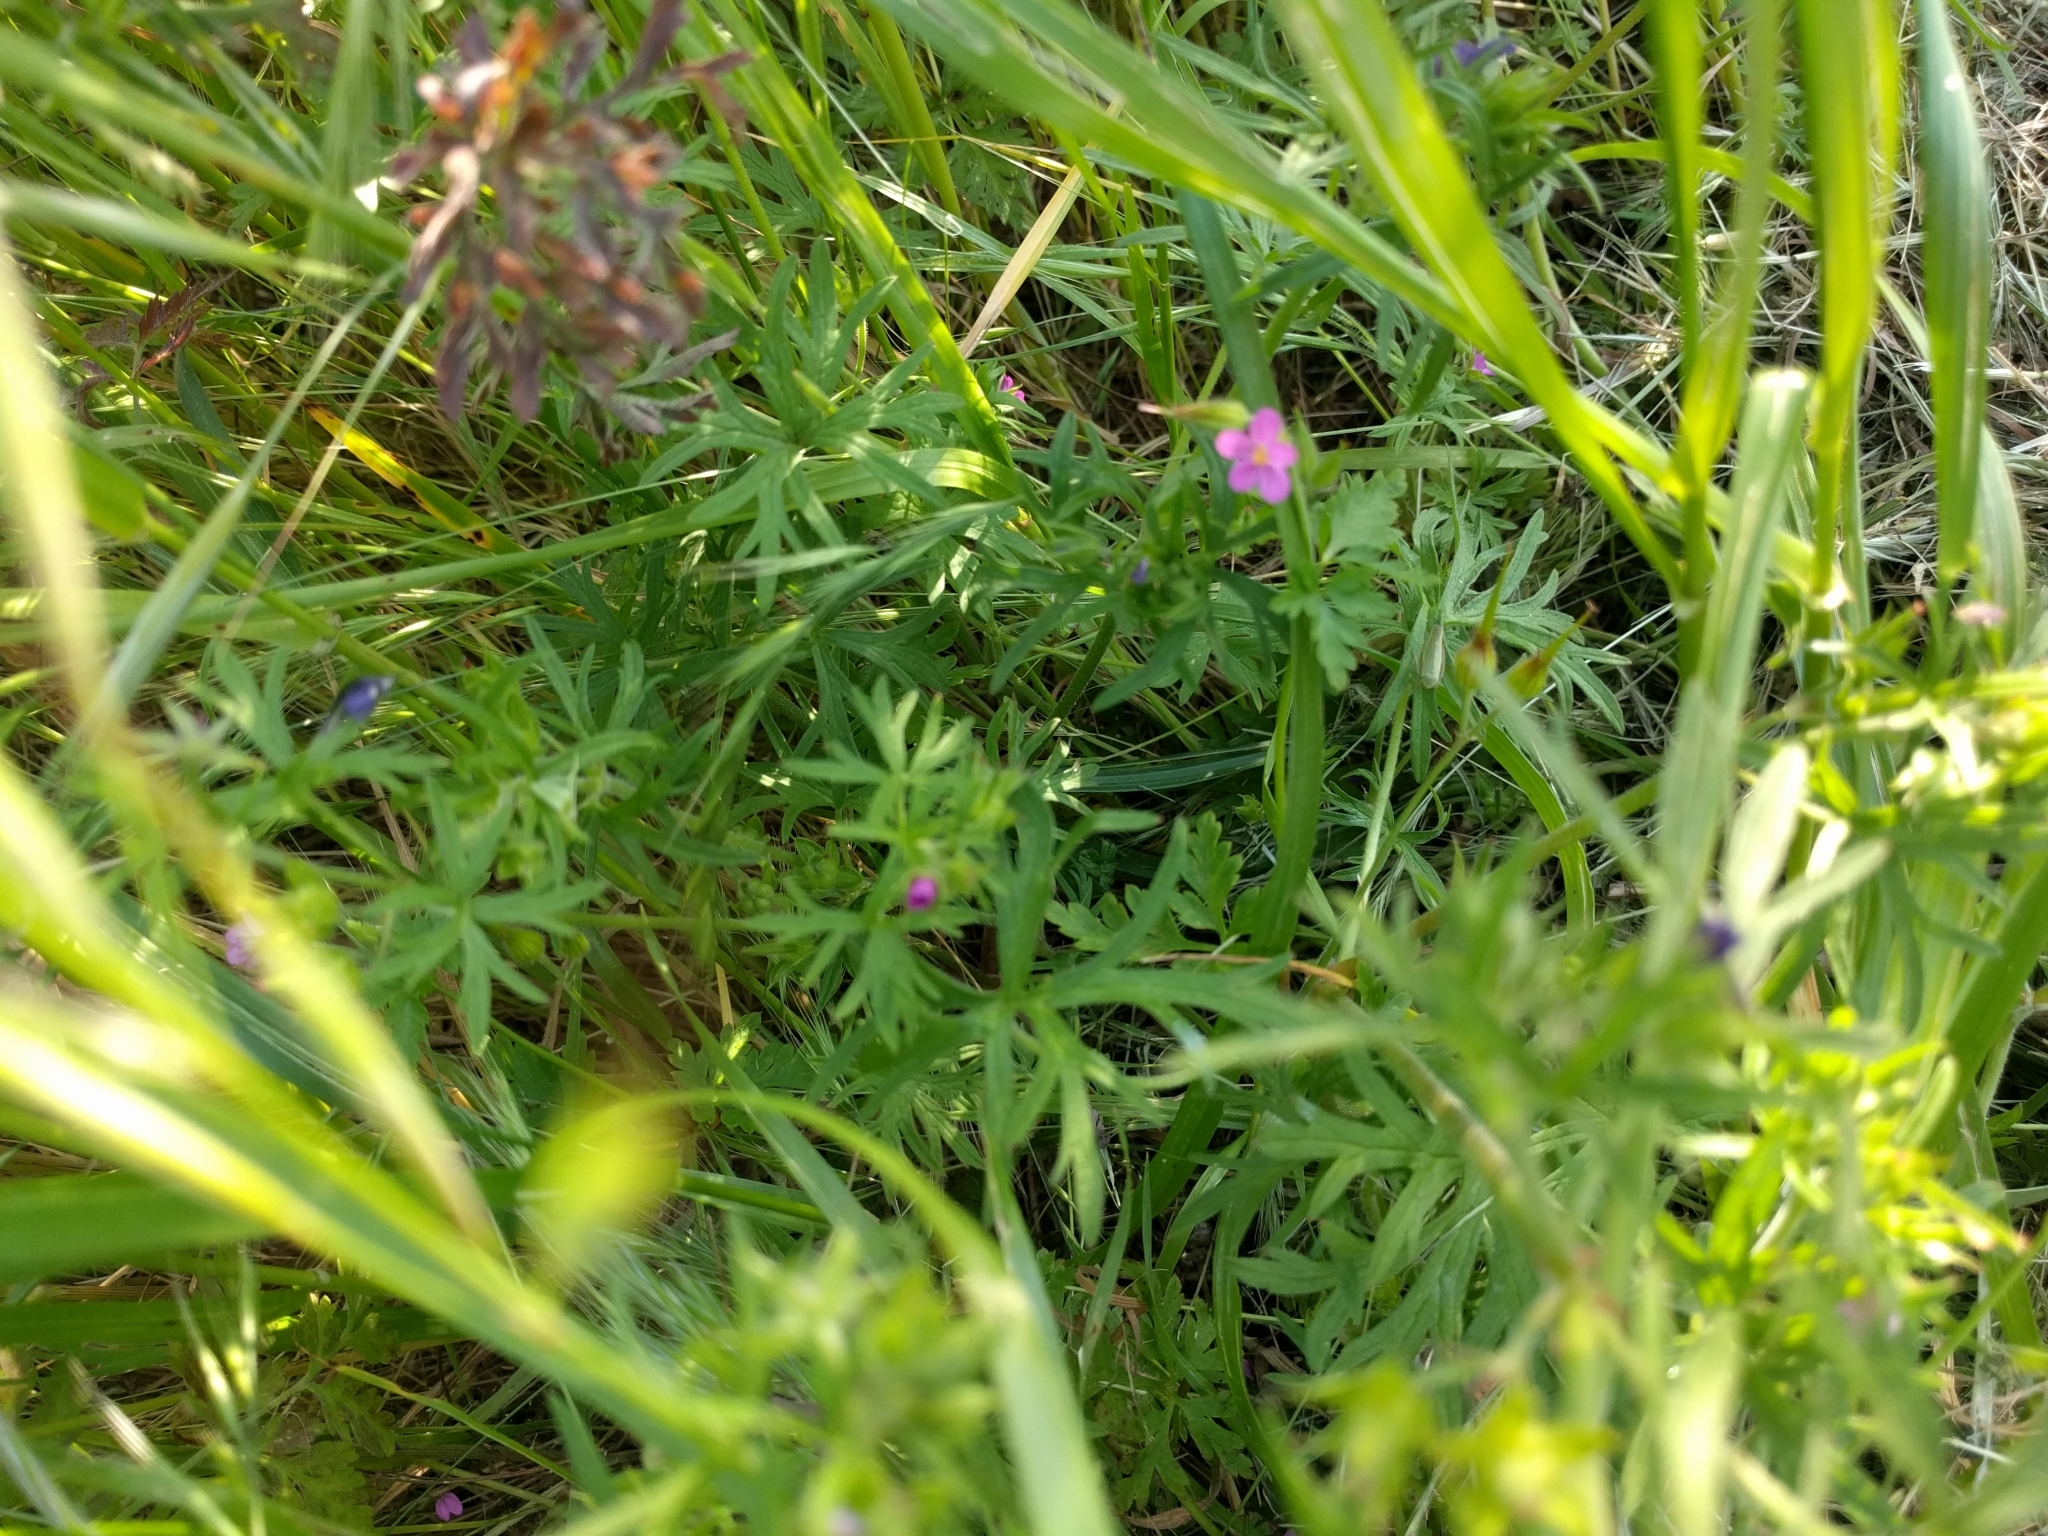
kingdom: Plantae
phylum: Tracheophyta
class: Magnoliopsida
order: Geraniales
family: Geraniaceae
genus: Geranium
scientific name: Geranium dissectum
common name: Cut-leaved crane's-bill
